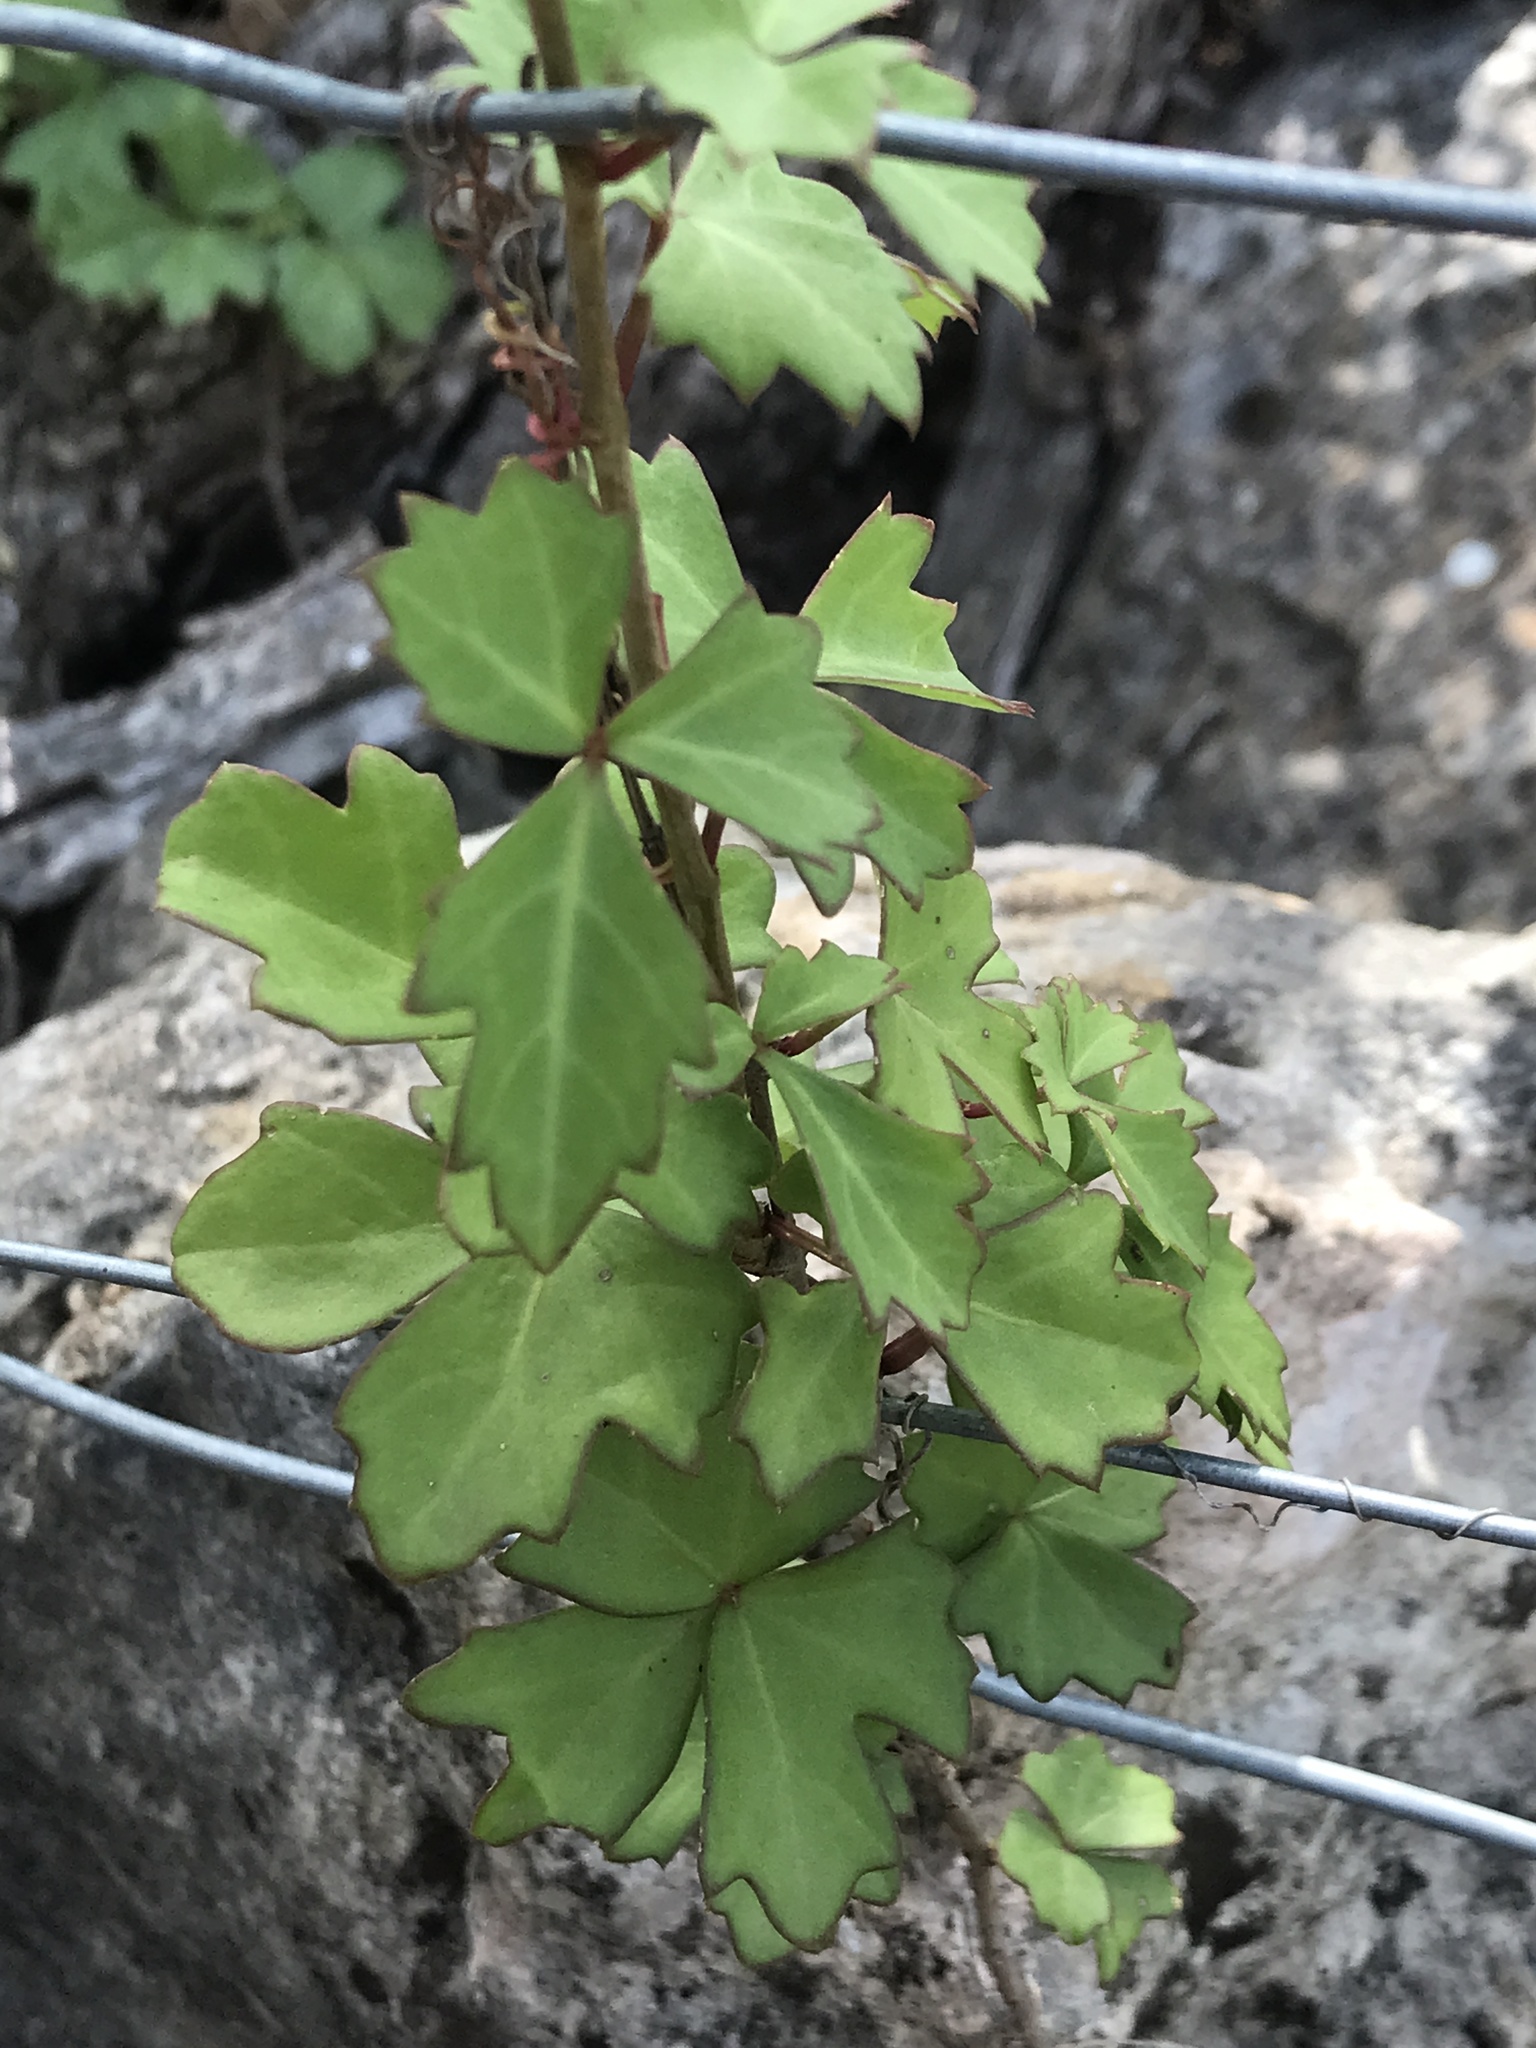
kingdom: Plantae
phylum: Tracheophyta
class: Magnoliopsida
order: Vitales
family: Vitaceae
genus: Cissus
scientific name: Cissus trifoliata
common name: Vine-sorrel
